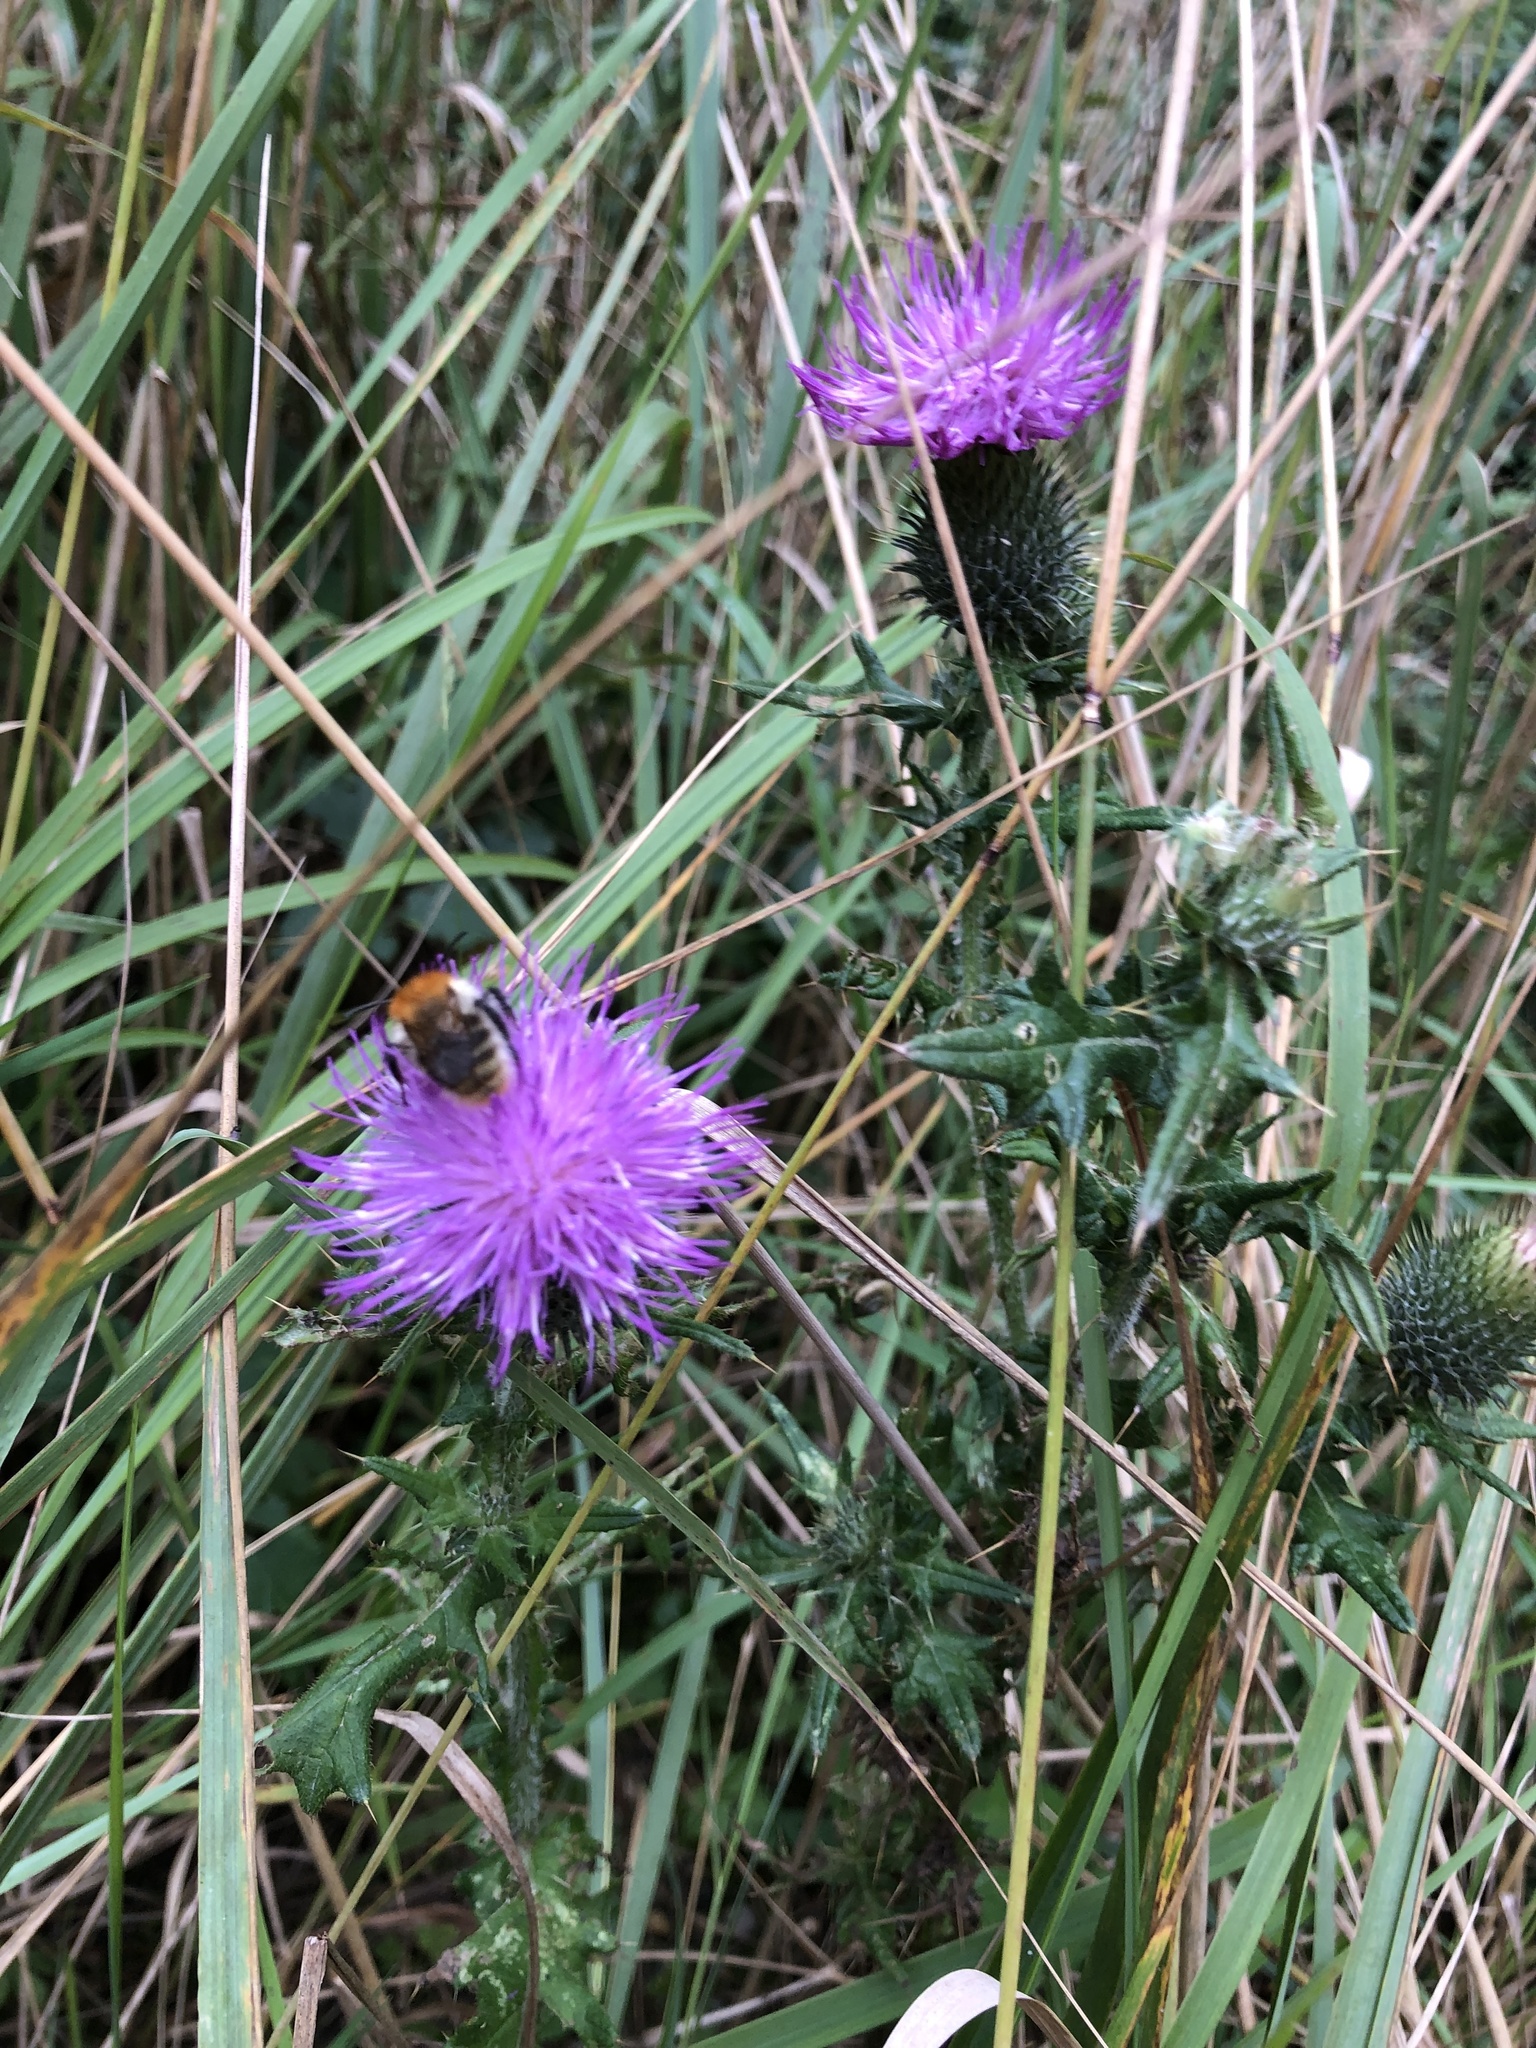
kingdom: Plantae
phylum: Tracheophyta
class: Magnoliopsida
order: Asterales
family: Asteraceae
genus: Cirsium
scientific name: Cirsium vulgare
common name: Bull thistle
